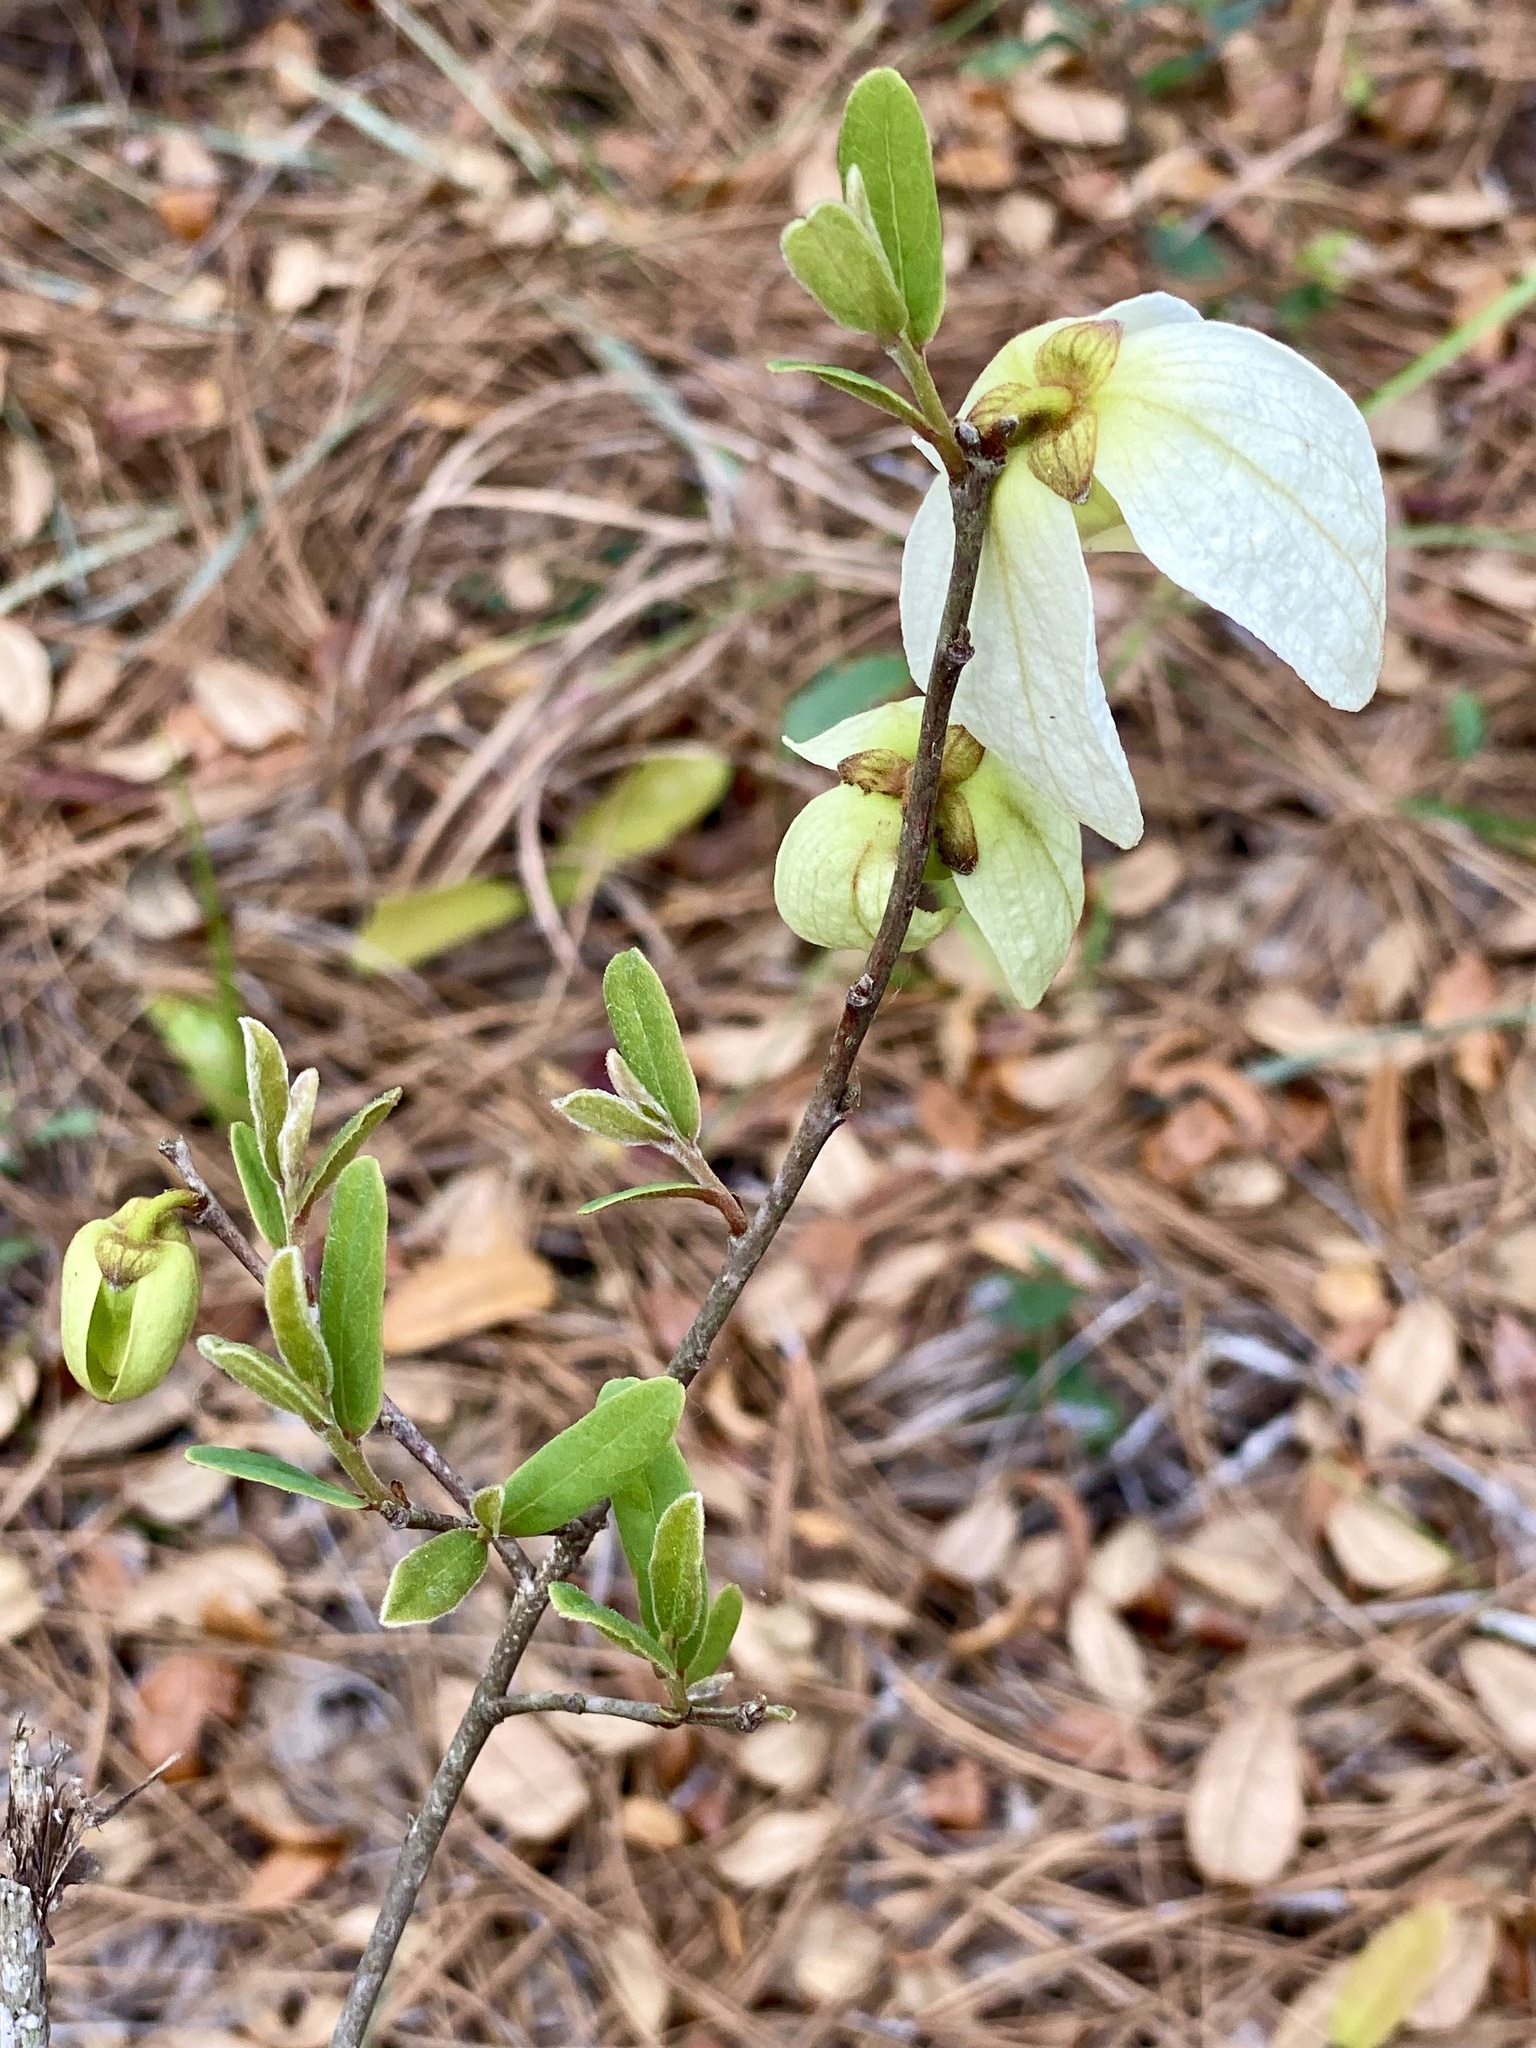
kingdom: Plantae
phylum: Tracheophyta
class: Magnoliopsida
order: Magnoliales
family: Annonaceae
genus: Asimina
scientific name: Asimina reticulata
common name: Flag pawpaw
